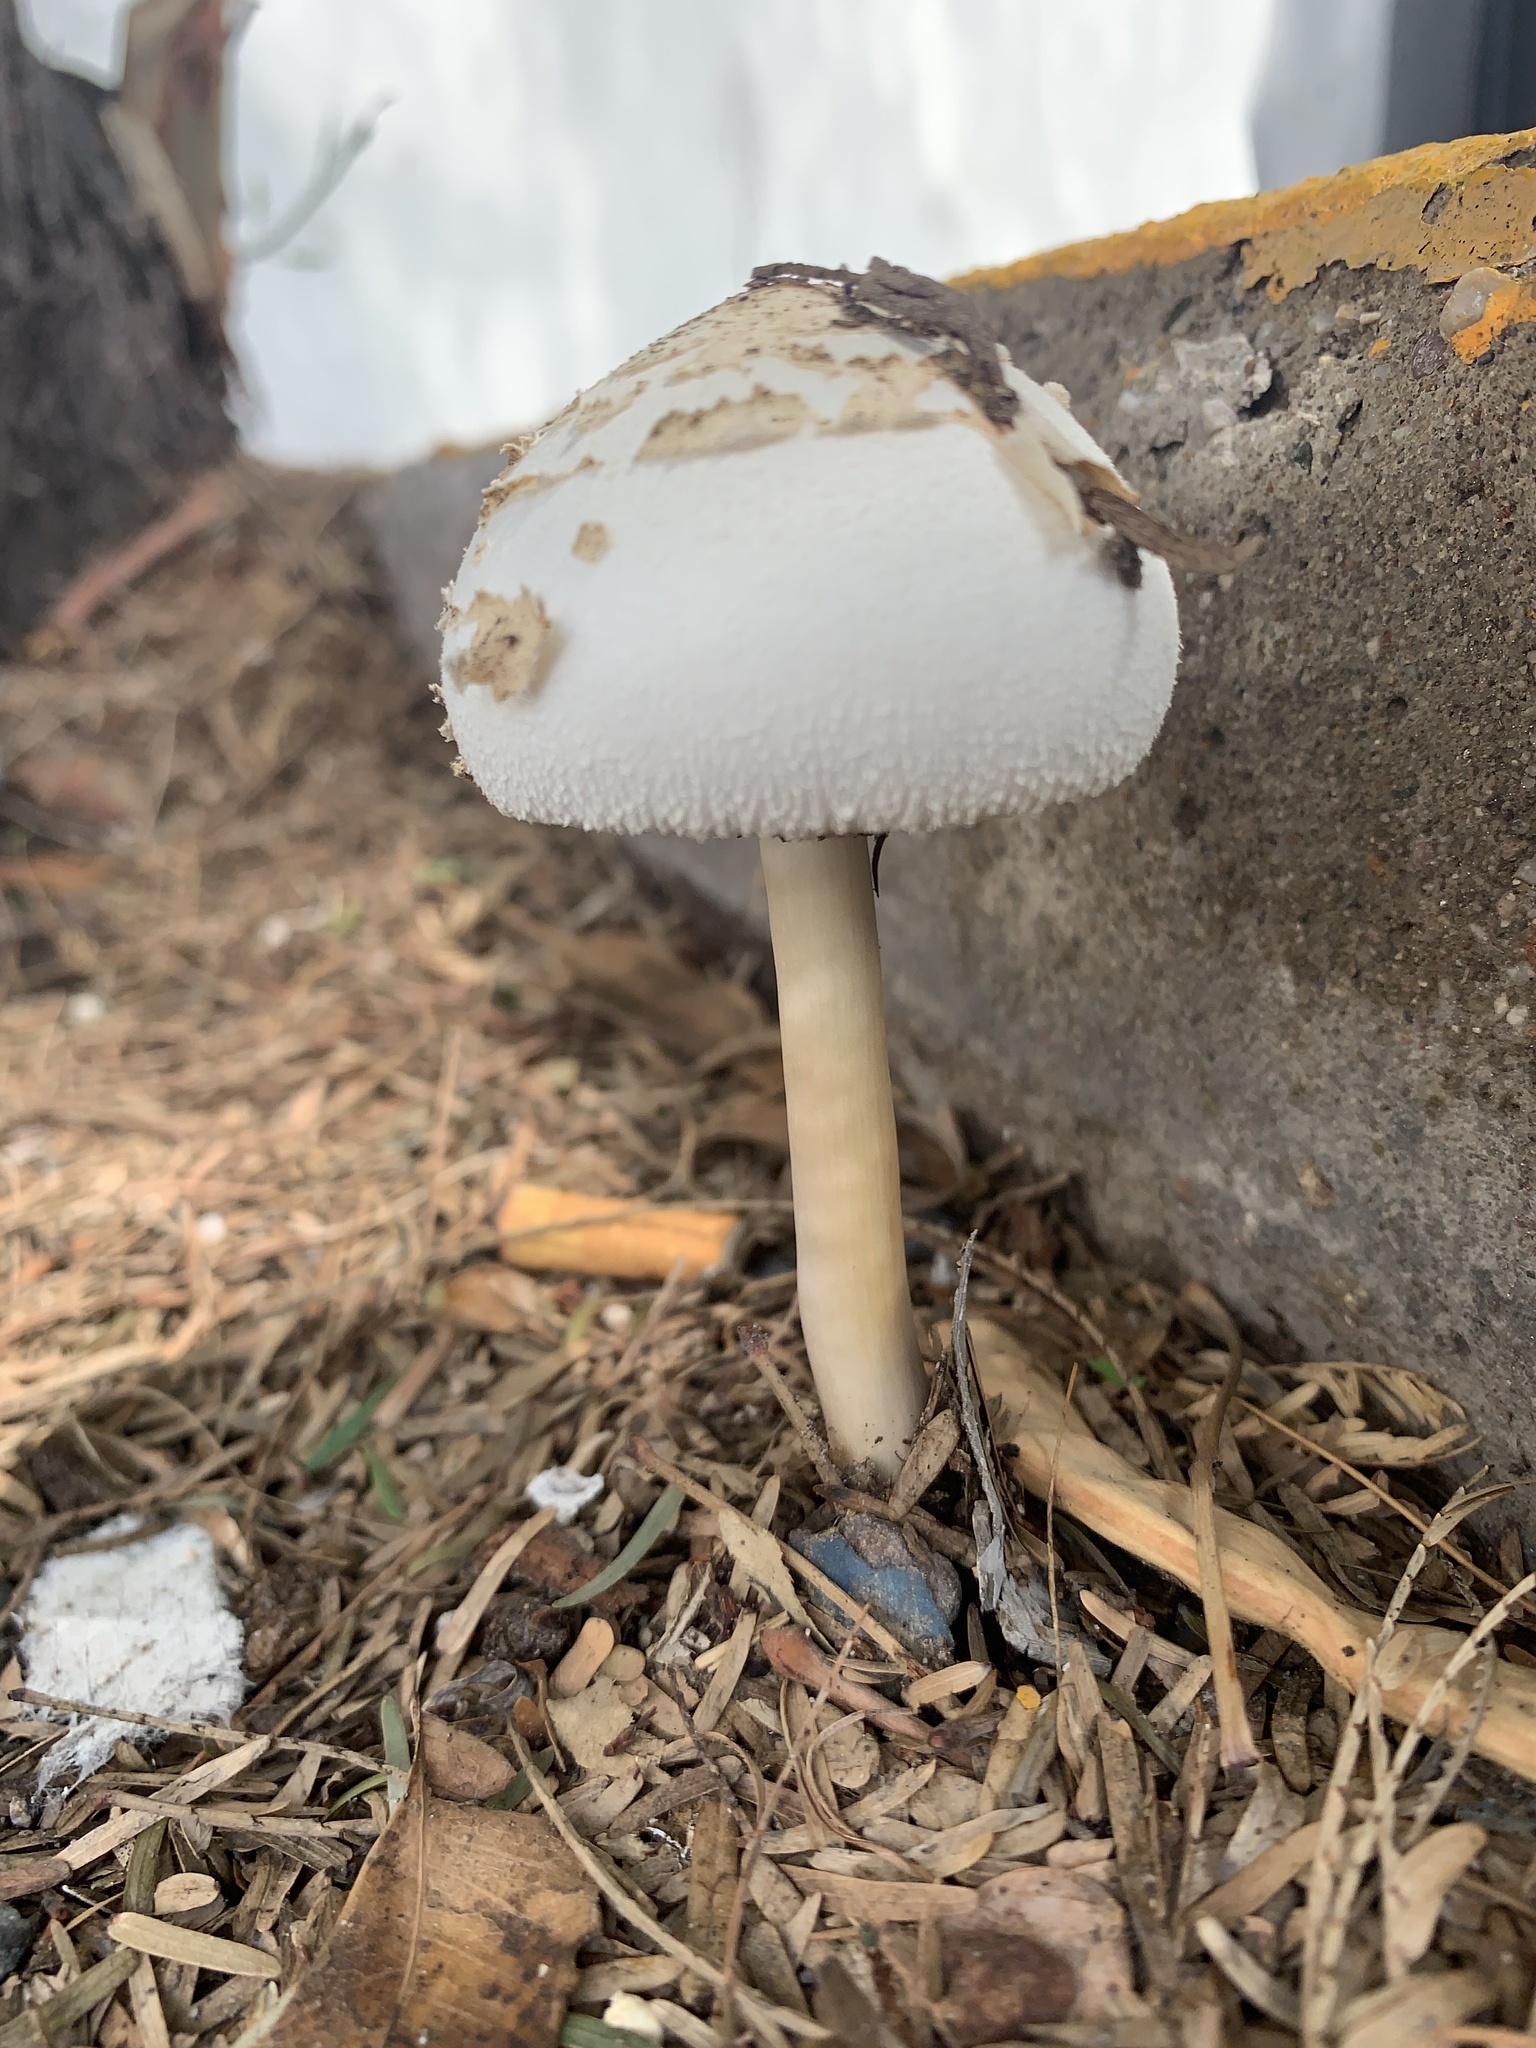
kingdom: Fungi
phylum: Basidiomycota
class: Agaricomycetes
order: Agaricales
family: Agaricaceae
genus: Chlorophyllum
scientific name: Chlorophyllum molybdites
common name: False parasol
